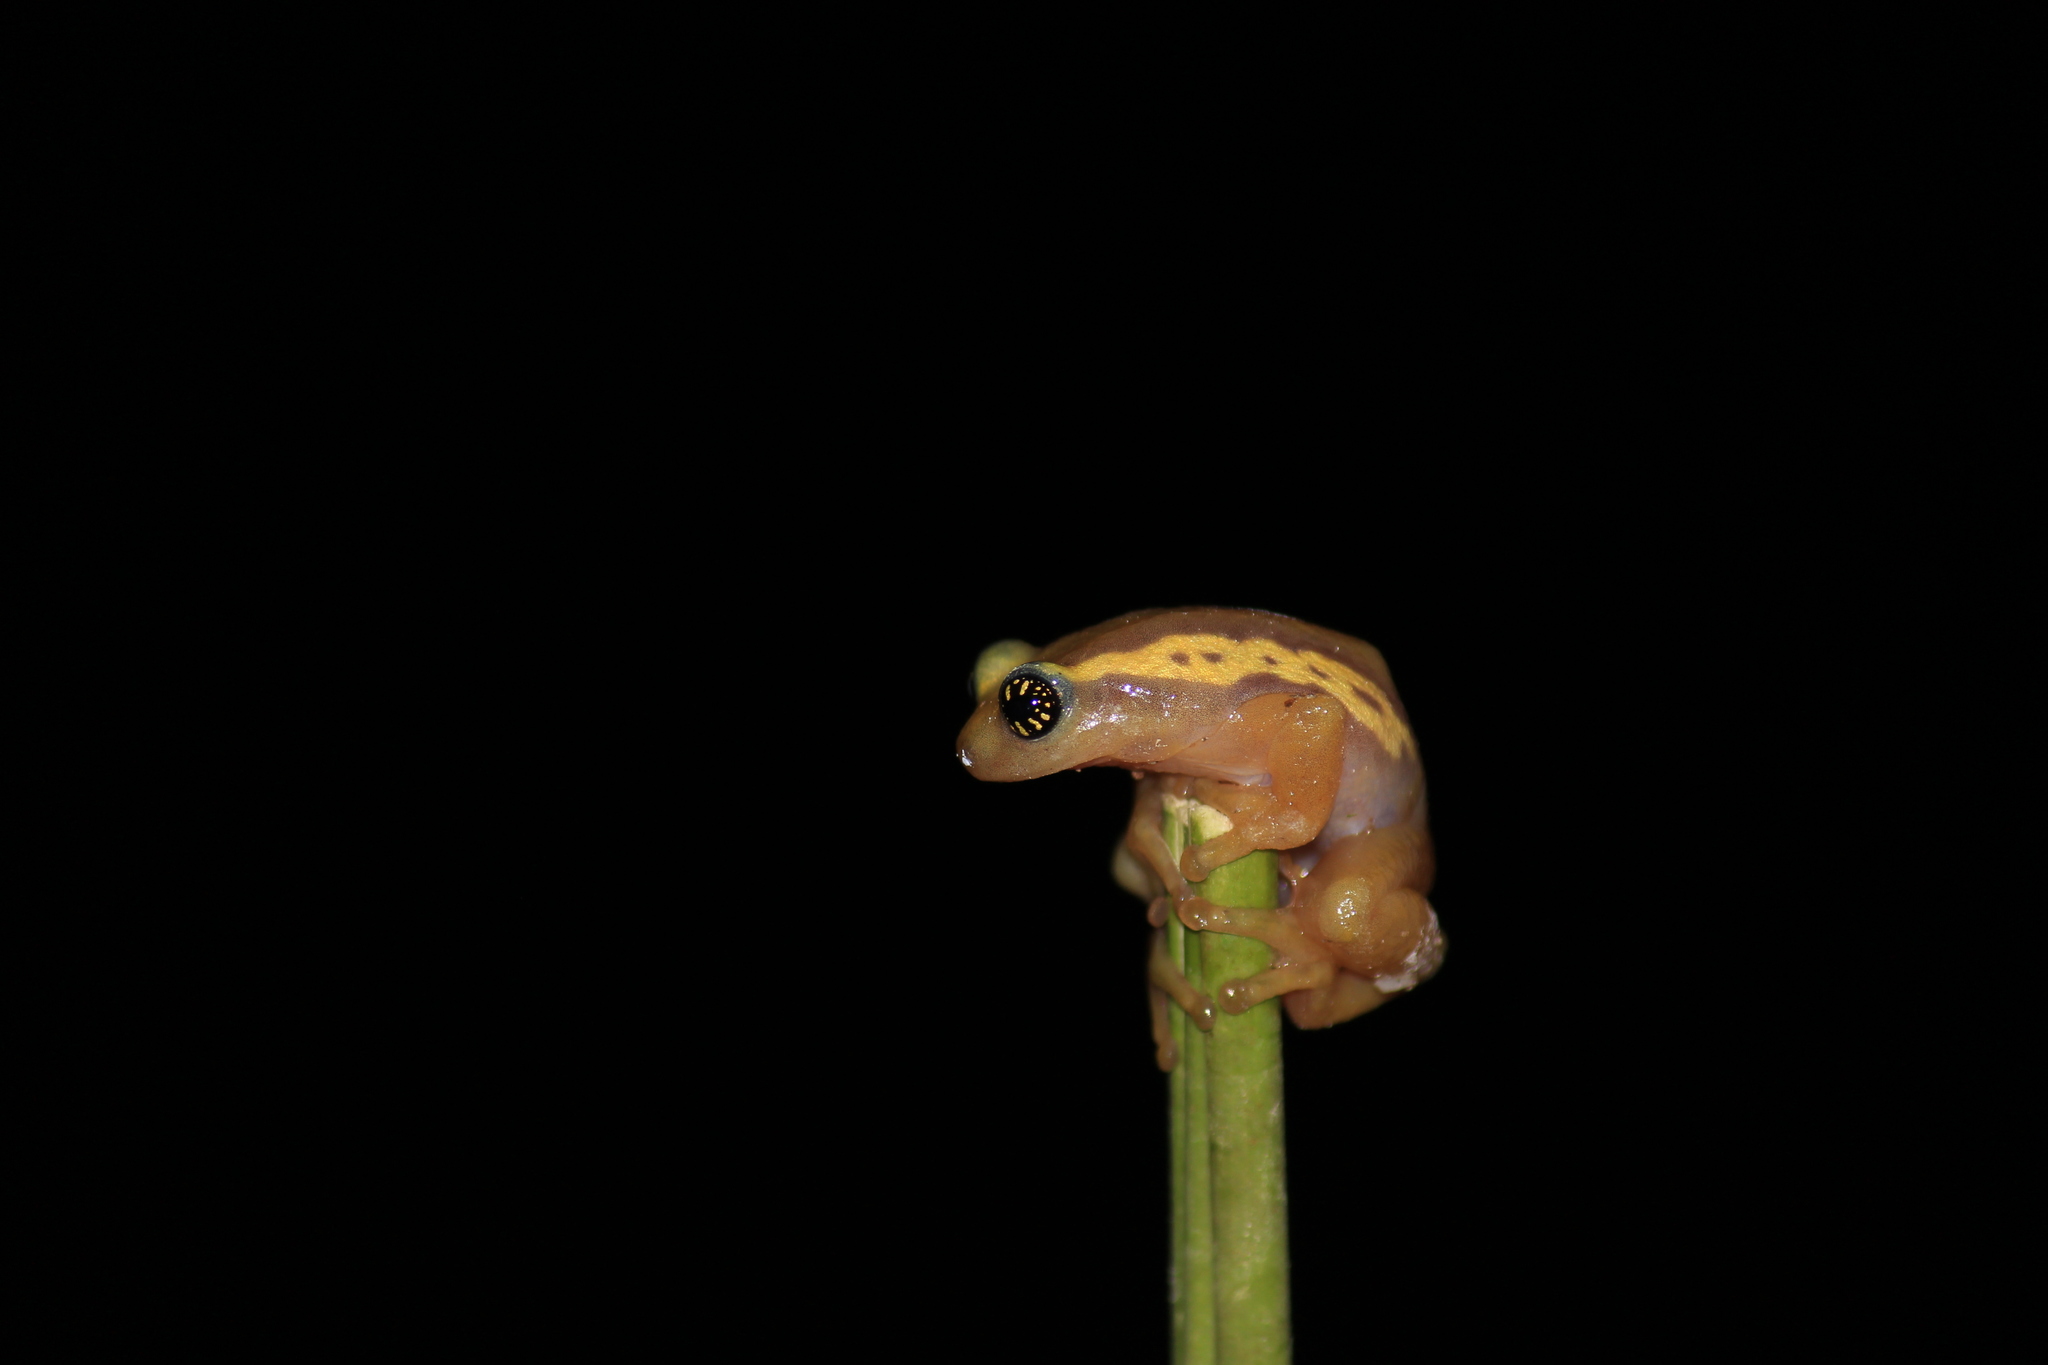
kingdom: Animalia
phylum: Chordata
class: Amphibia
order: Anura
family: Rhacophoridae
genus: Raorchestes
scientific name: Raorchestes ochlandrae
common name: Ochlandrae reed frog
